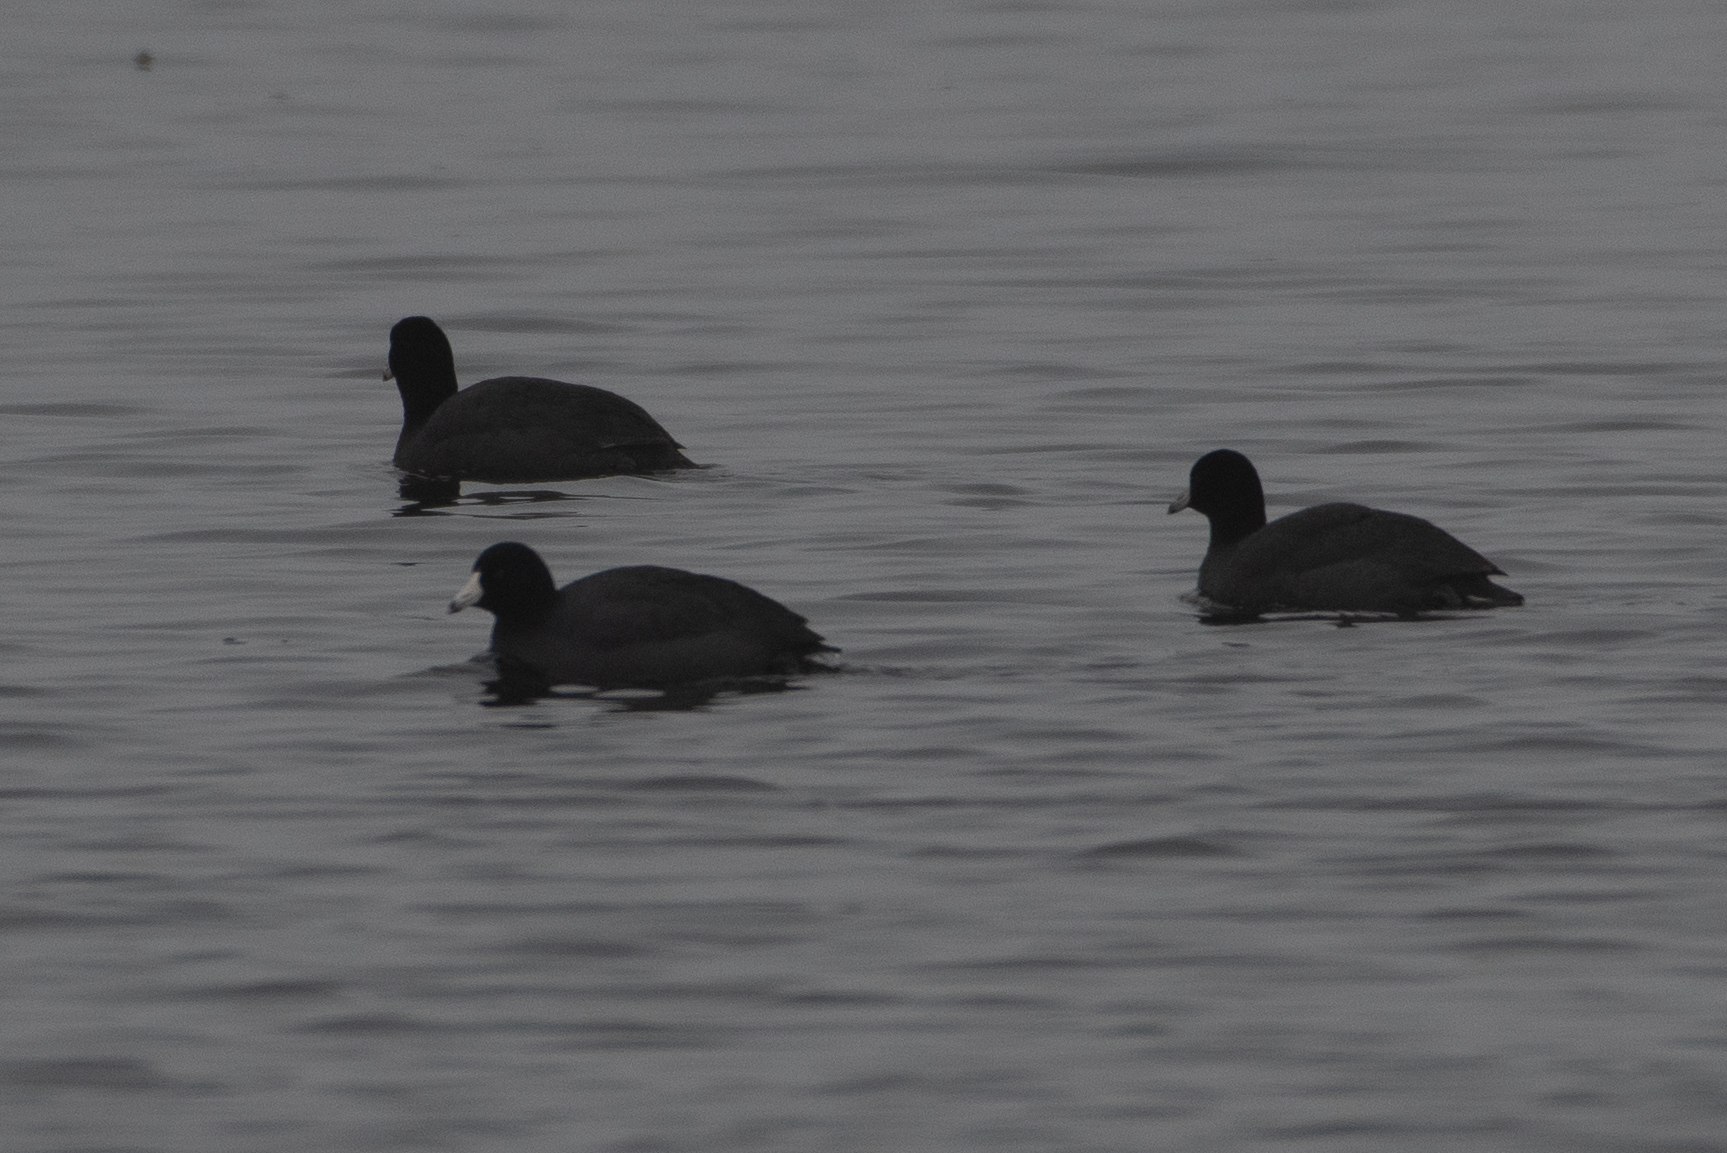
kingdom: Animalia
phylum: Chordata
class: Aves
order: Gruiformes
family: Rallidae
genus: Fulica
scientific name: Fulica americana
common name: American coot
